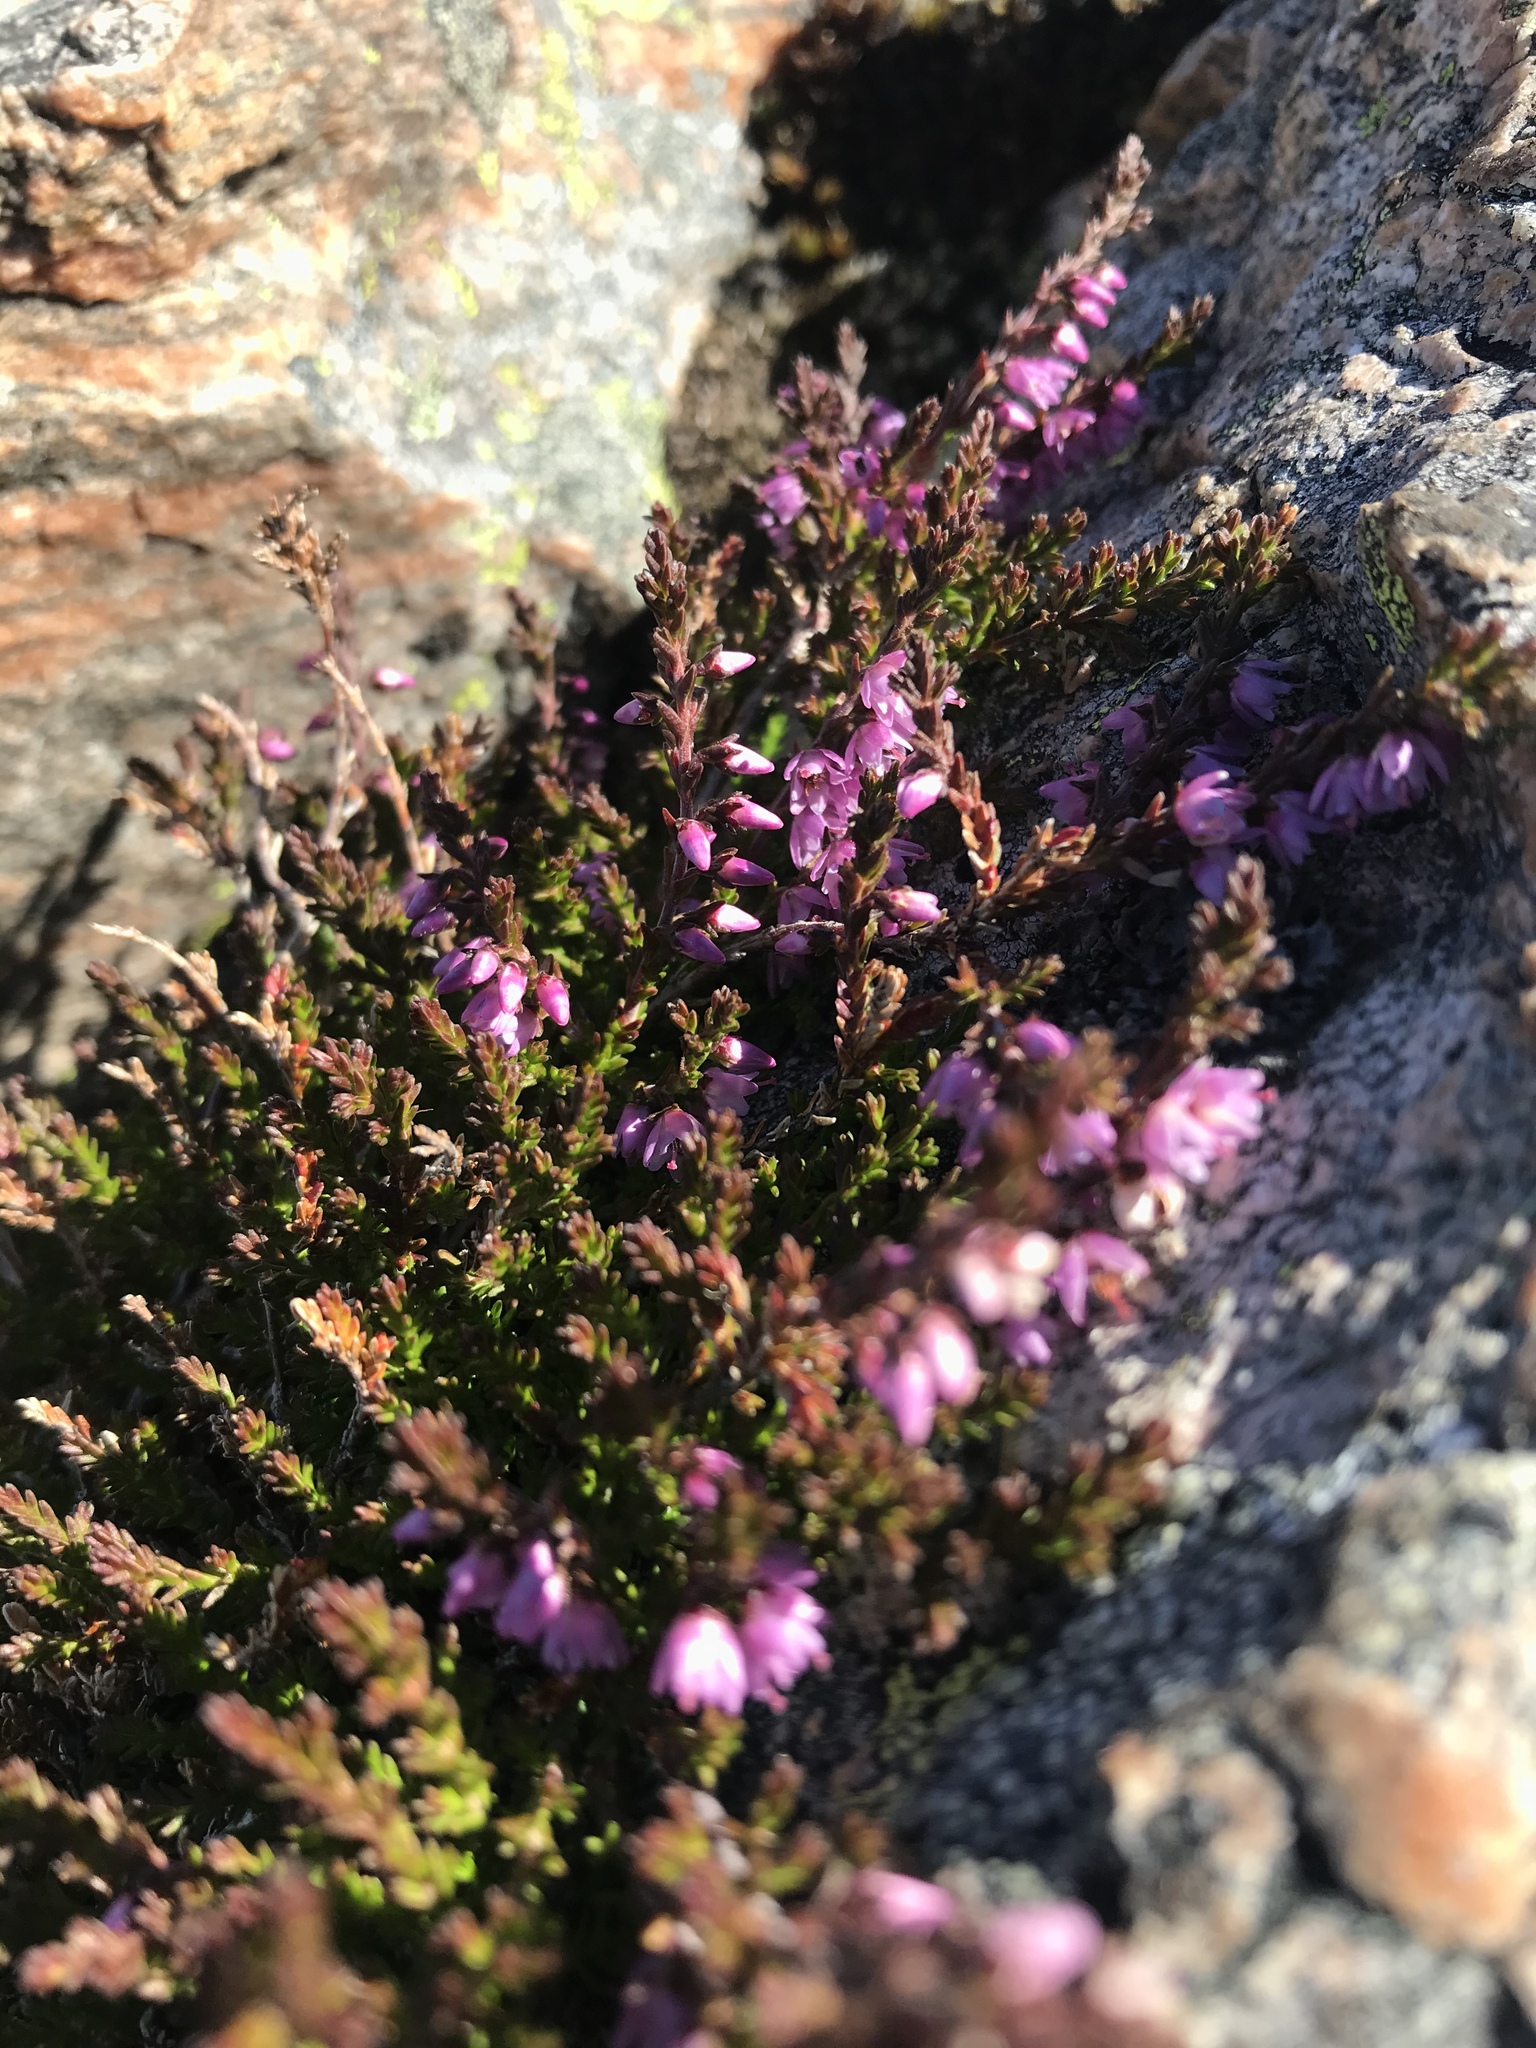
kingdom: Plantae
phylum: Tracheophyta
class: Magnoliopsida
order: Ericales
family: Ericaceae
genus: Calluna
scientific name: Calluna vulgaris
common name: Heather
